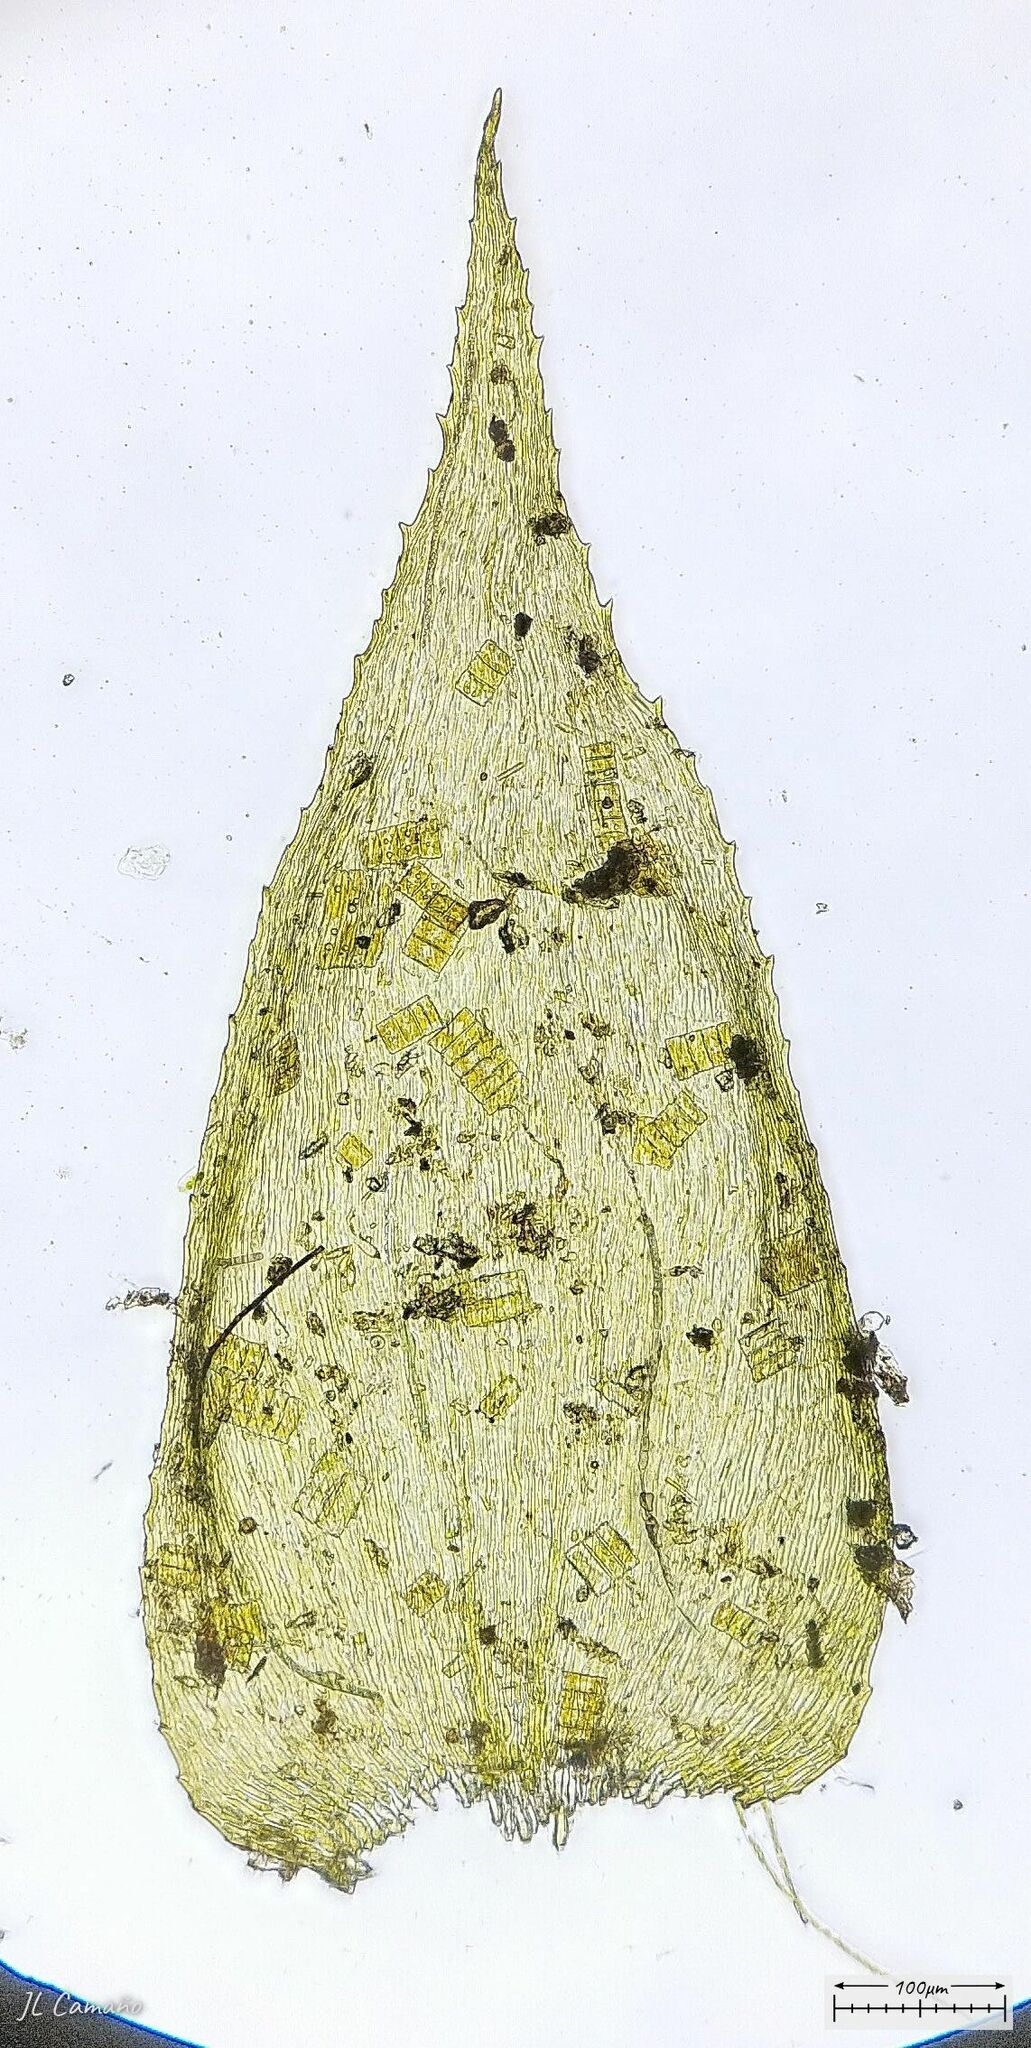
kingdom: Plantae
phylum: Bryophyta
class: Bryopsida
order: Hypnales
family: Myuriaceae
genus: Hyocomium
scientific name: Hyocomium armoricum
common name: Flagellate feather-moss
